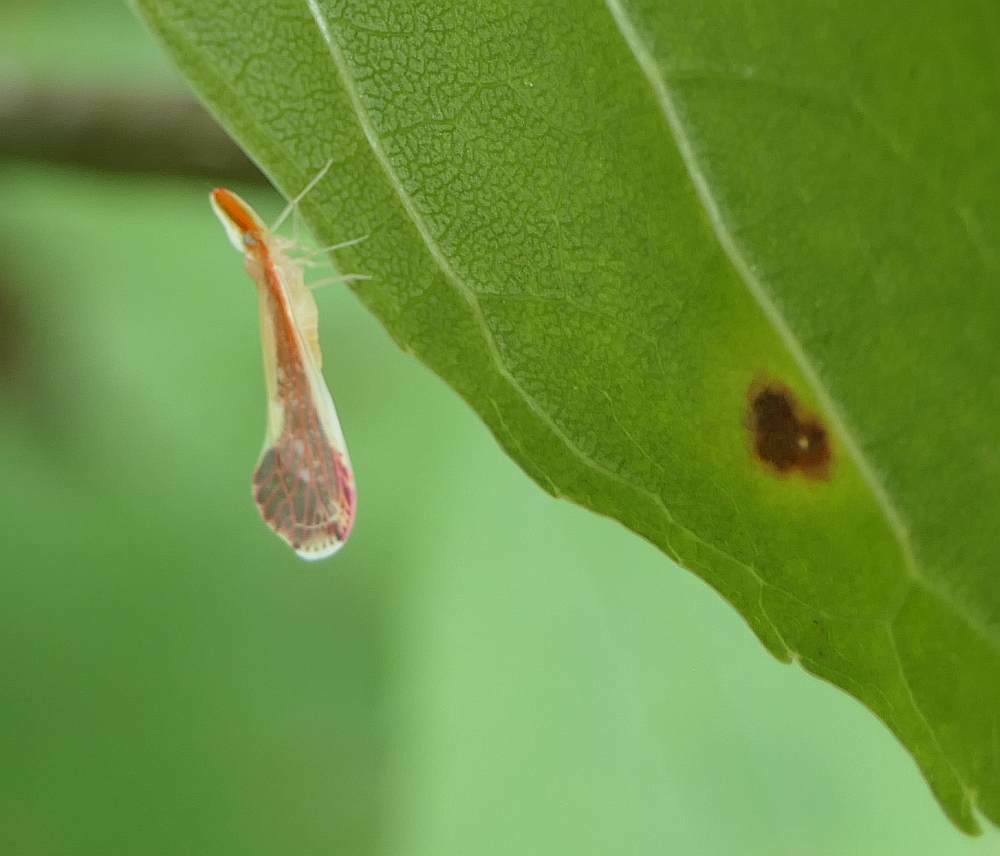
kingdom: Animalia
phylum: Arthropoda
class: Insecta
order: Hemiptera
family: Derbidae
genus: Shellenius
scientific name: Shellenius ballii
